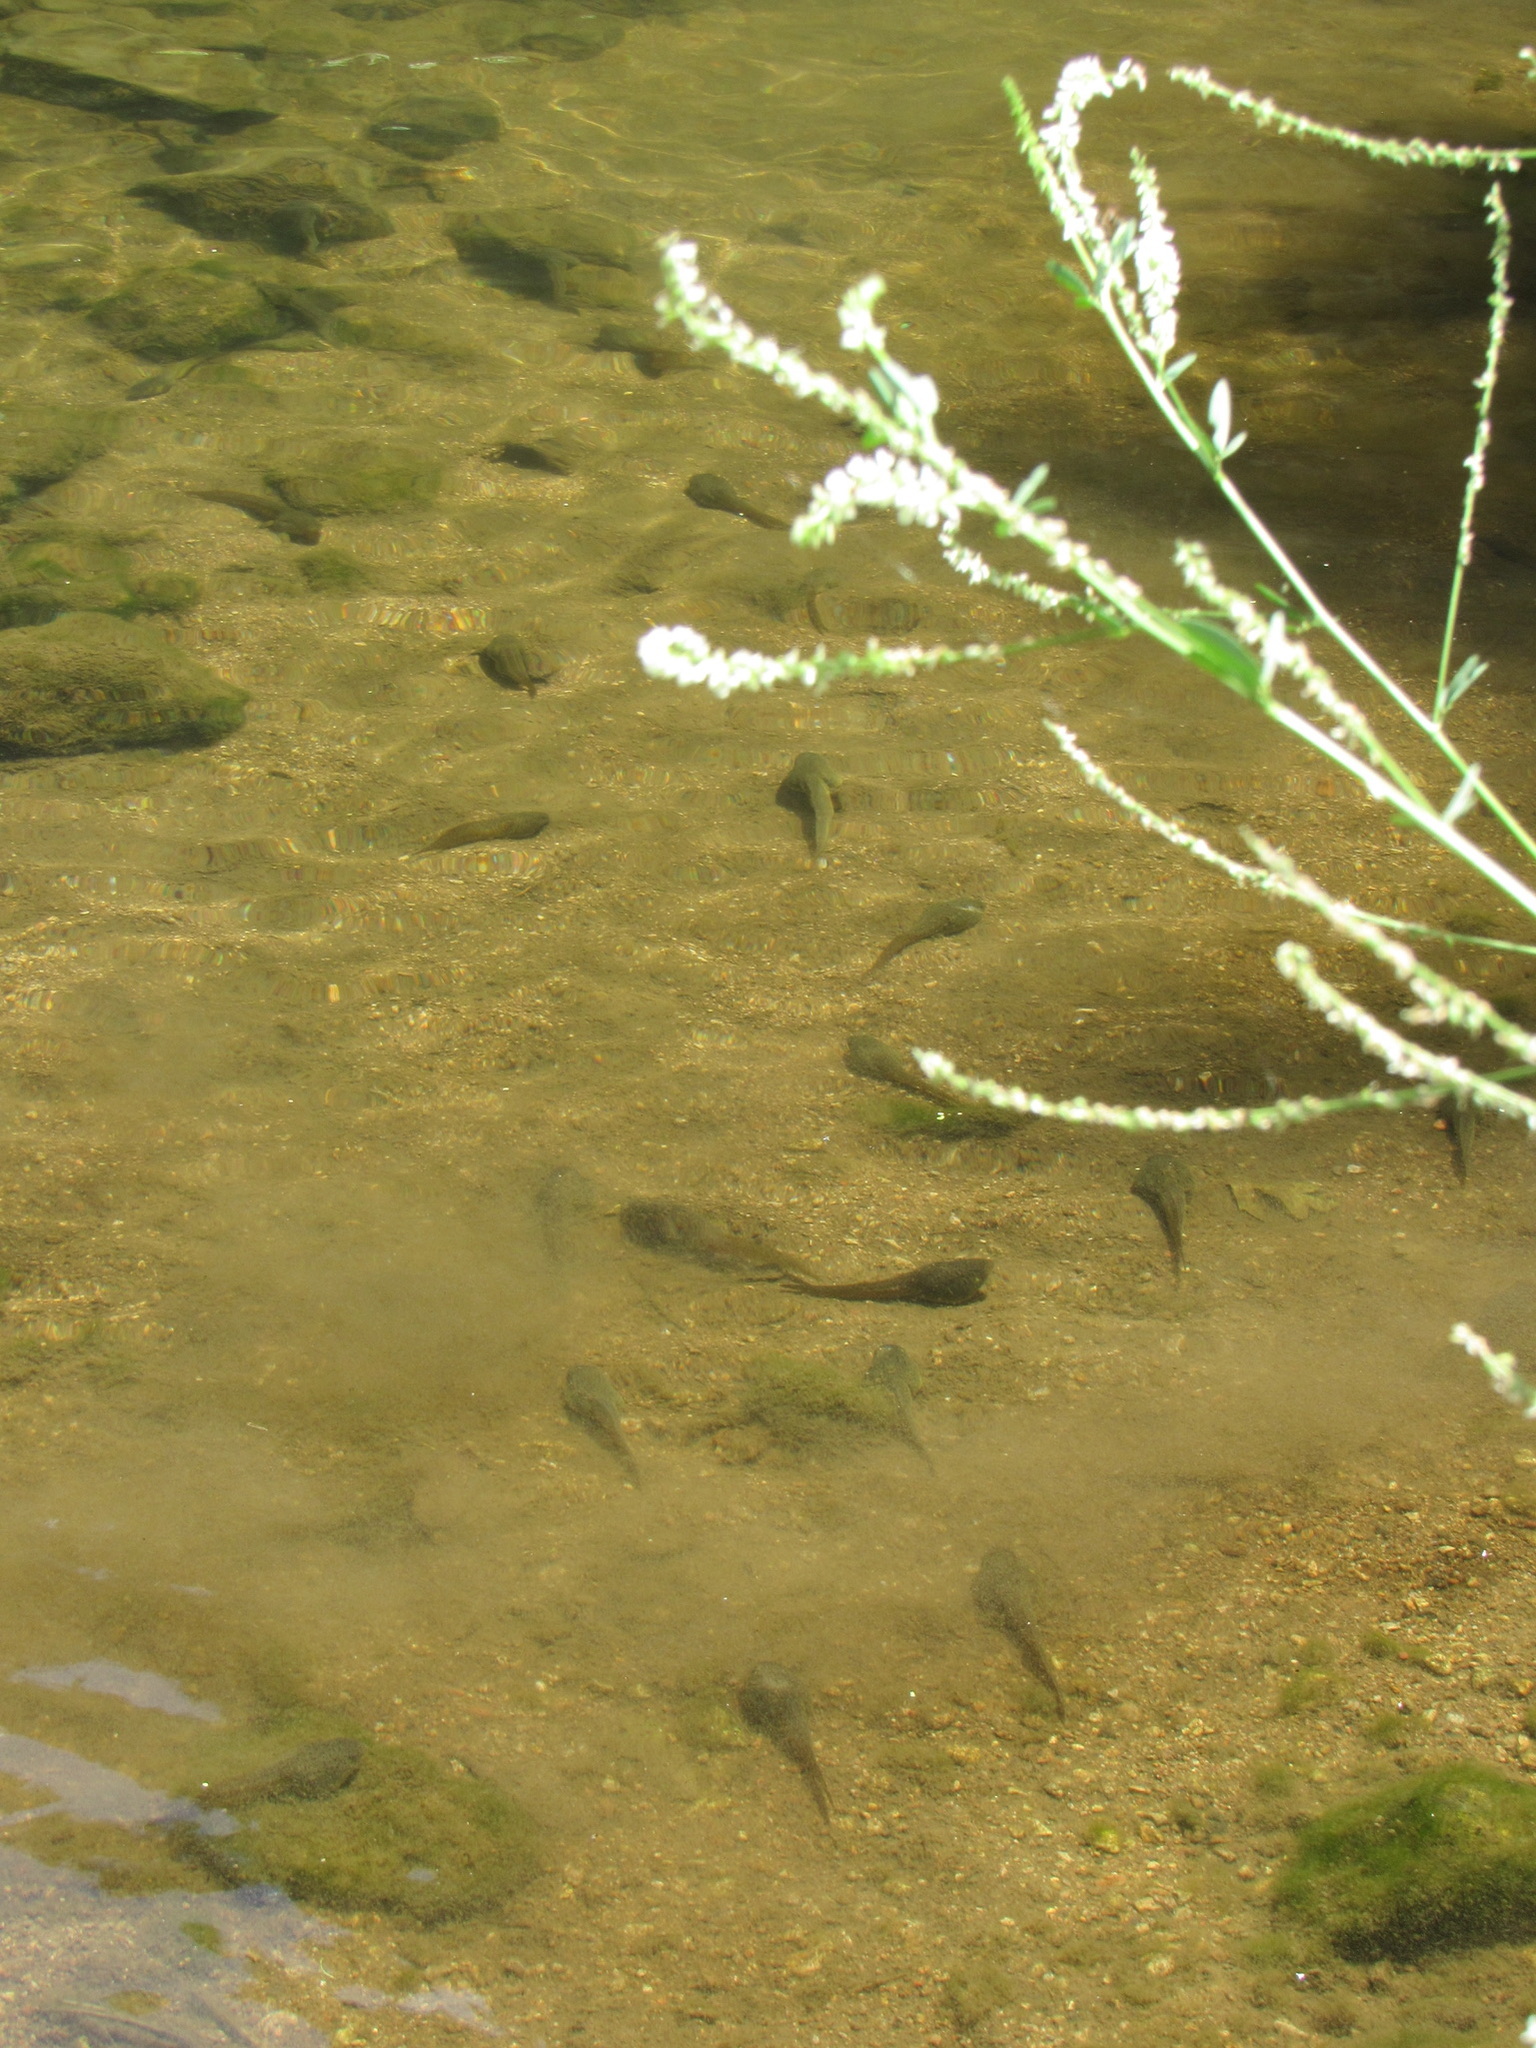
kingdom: Animalia
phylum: Chordata
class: Amphibia
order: Anura
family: Ranidae
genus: Lithobates
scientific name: Lithobates catesbeianus
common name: American bullfrog
